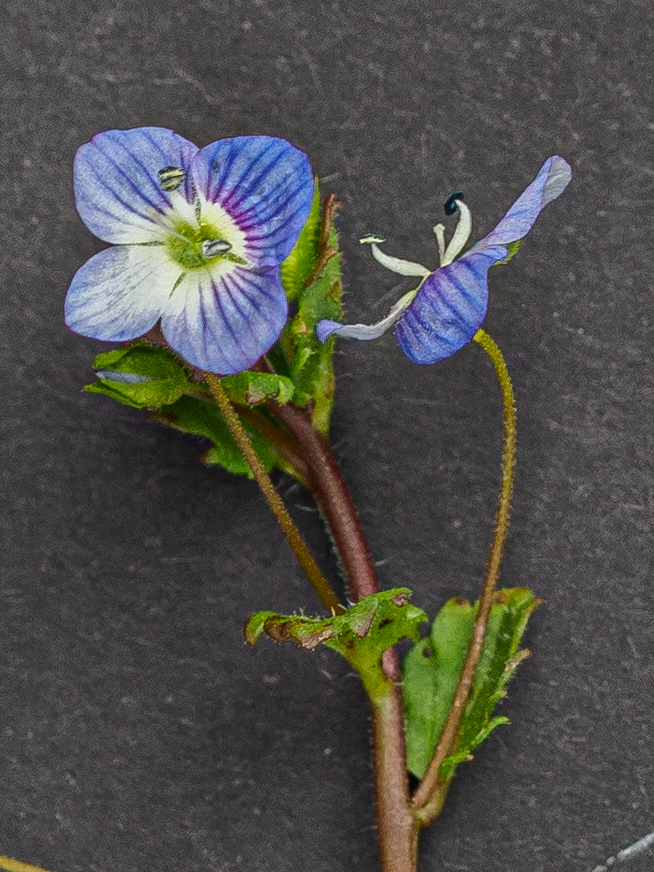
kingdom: Plantae
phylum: Tracheophyta
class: Magnoliopsida
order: Lamiales
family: Plantaginaceae
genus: Veronica
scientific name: Veronica persica
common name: Common field-speedwell
